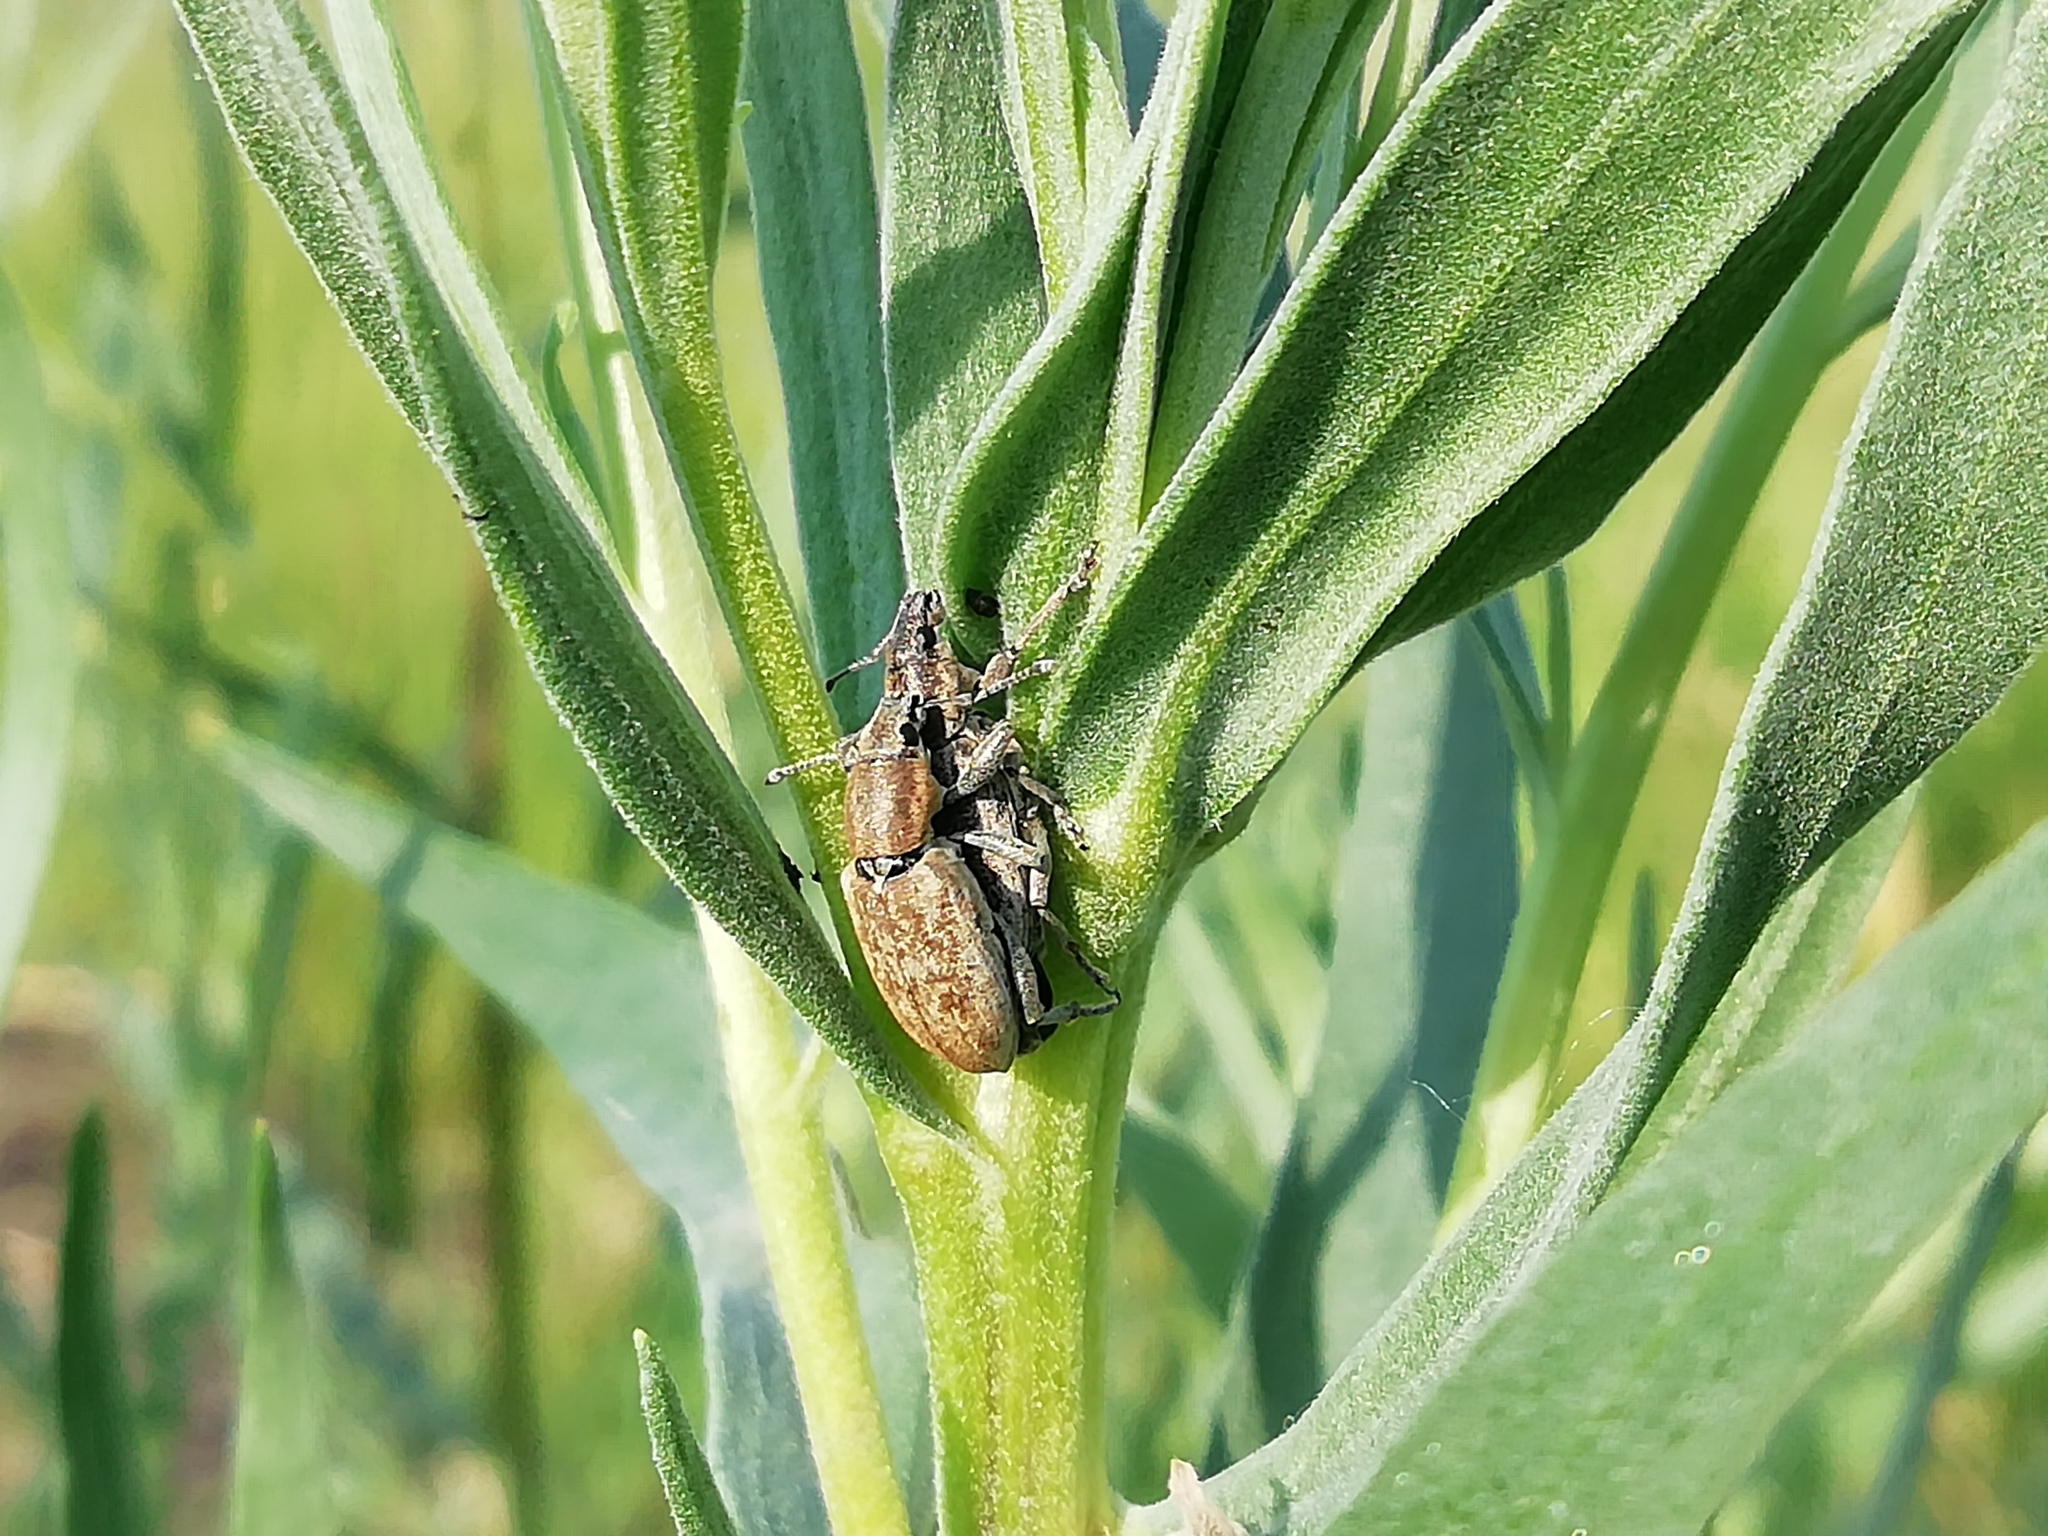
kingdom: Animalia
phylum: Arthropoda
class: Insecta
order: Coleoptera
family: Curculionidae
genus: Tanymecus
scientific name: Tanymecus palliatus
